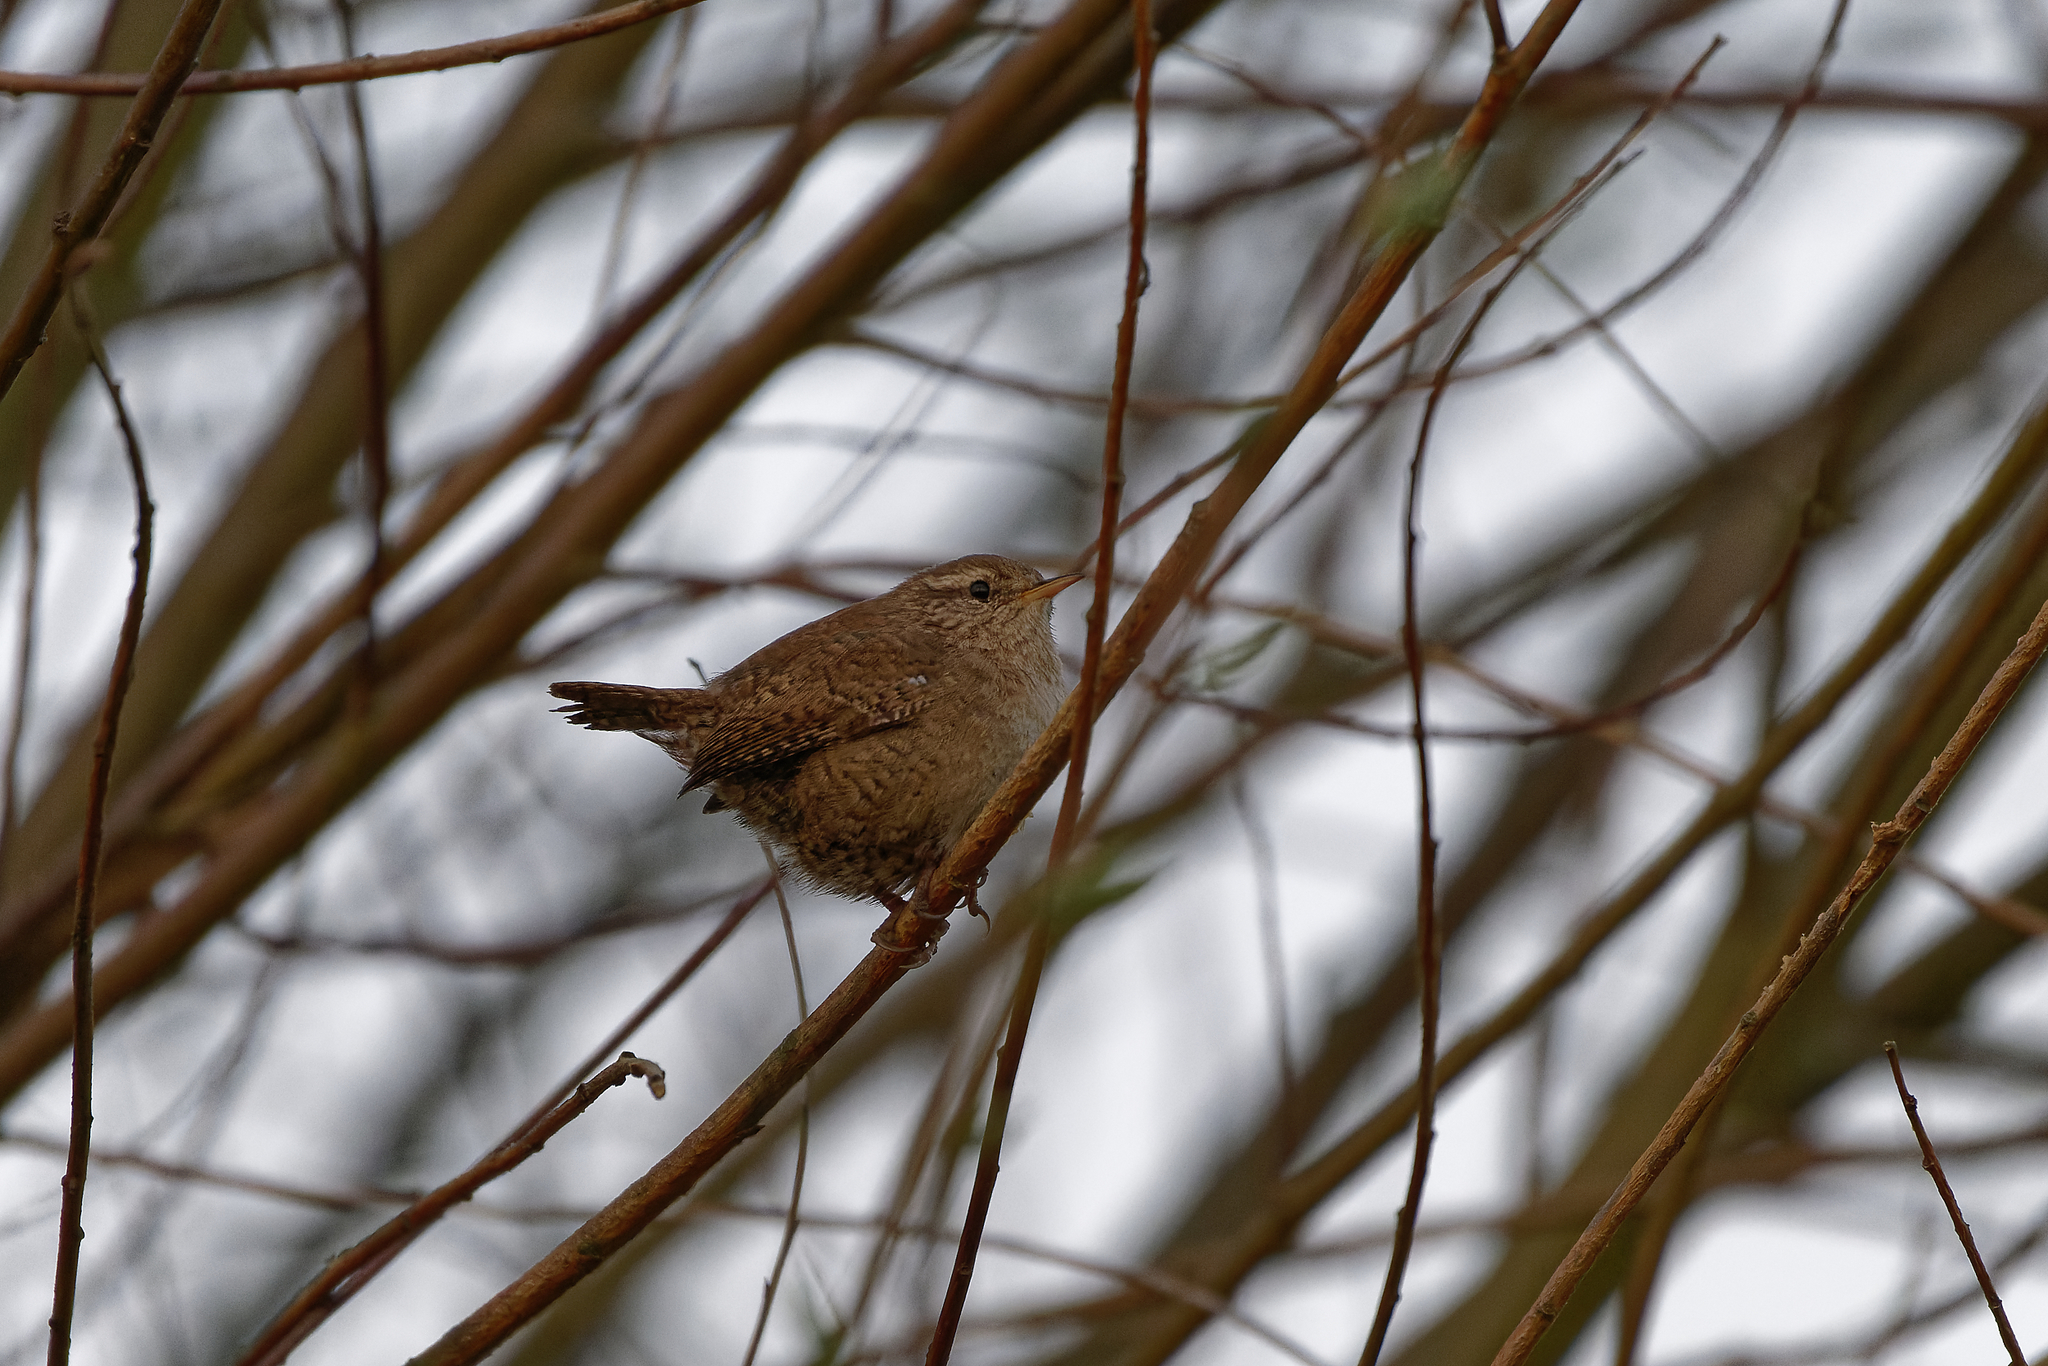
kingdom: Animalia
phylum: Chordata
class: Aves
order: Passeriformes
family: Troglodytidae
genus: Troglodytes
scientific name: Troglodytes troglodytes
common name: Eurasian wren
